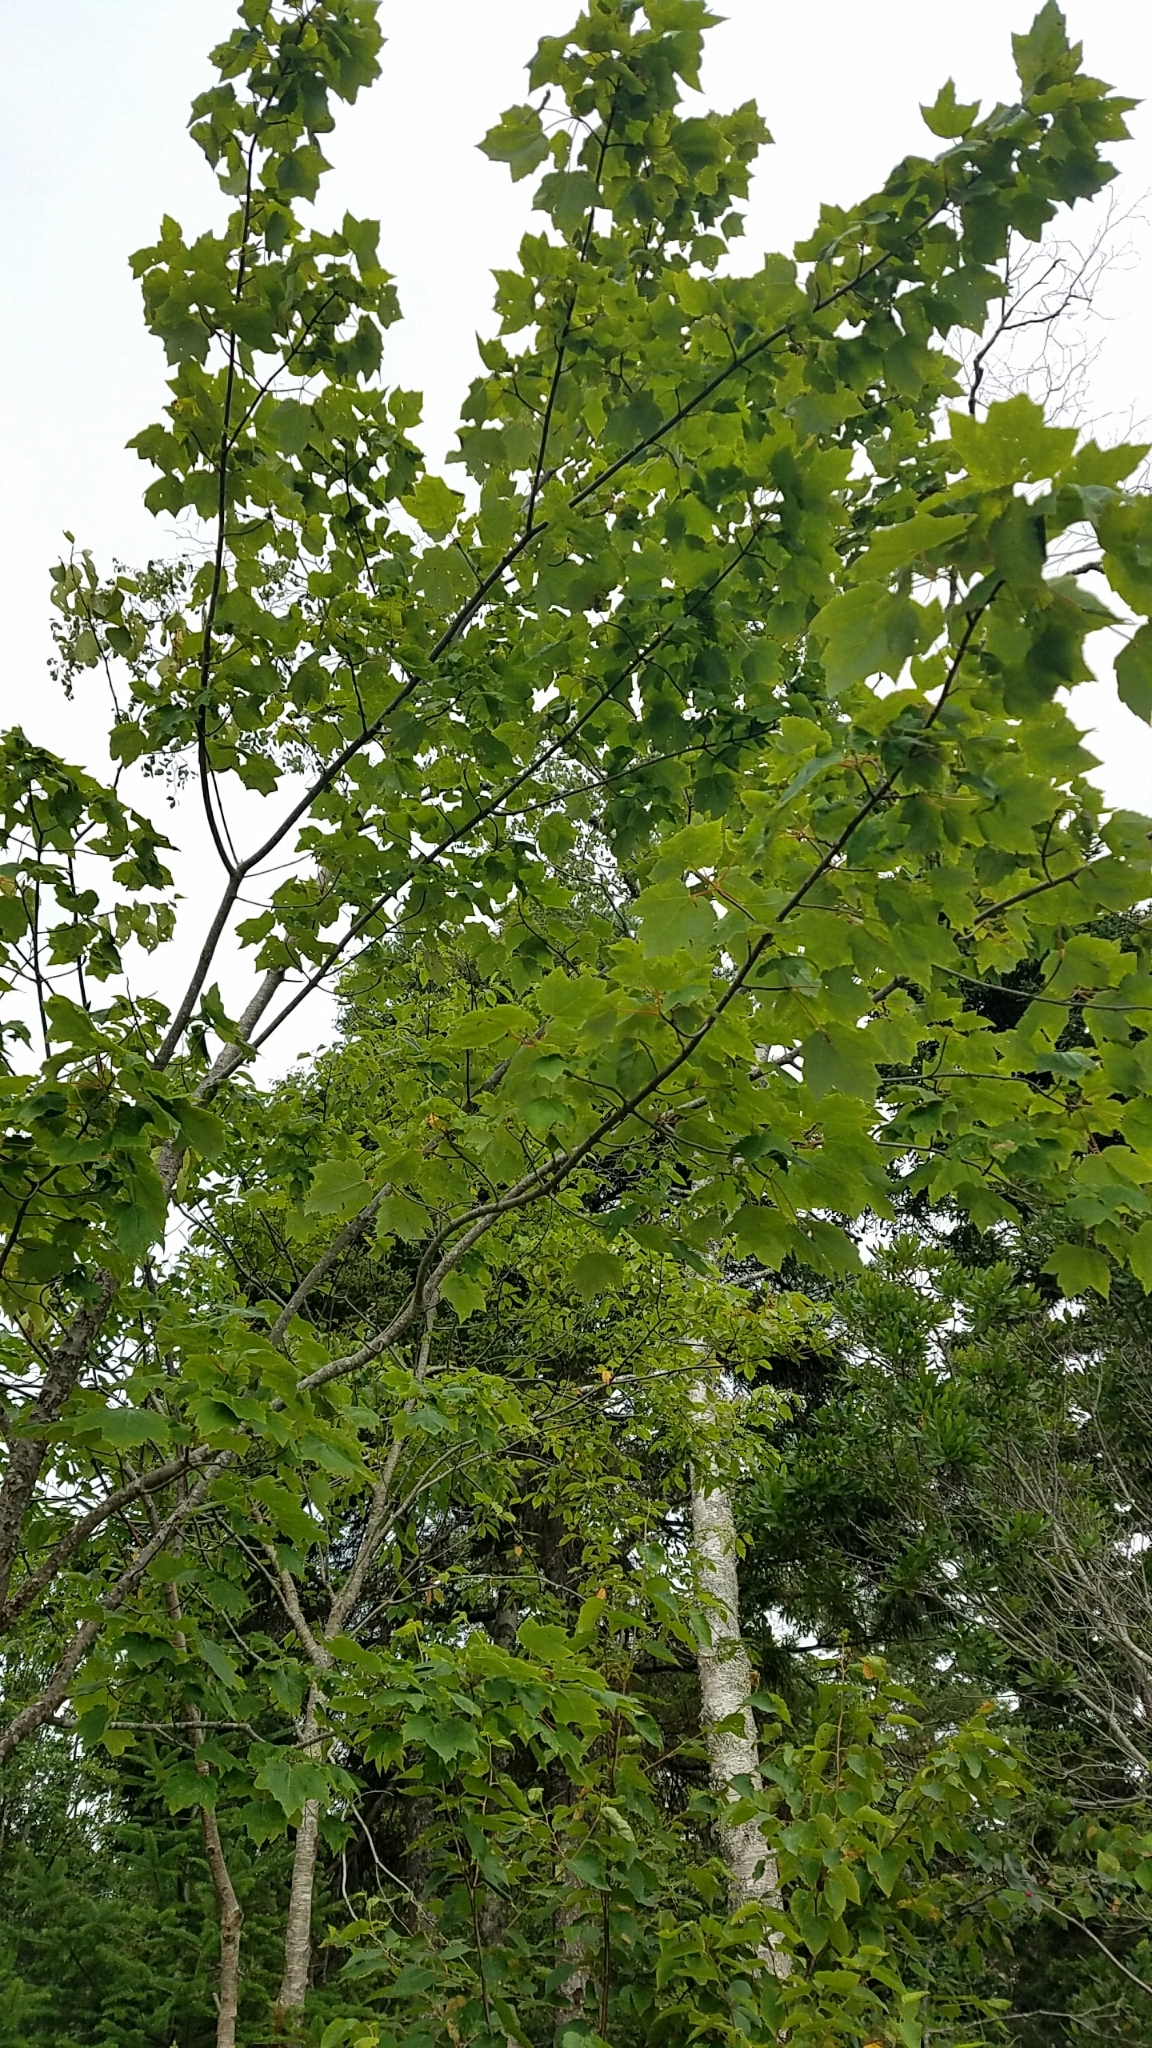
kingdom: Plantae
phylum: Tracheophyta
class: Magnoliopsida
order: Sapindales
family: Sapindaceae
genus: Acer
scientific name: Acer rubrum
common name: Red maple
